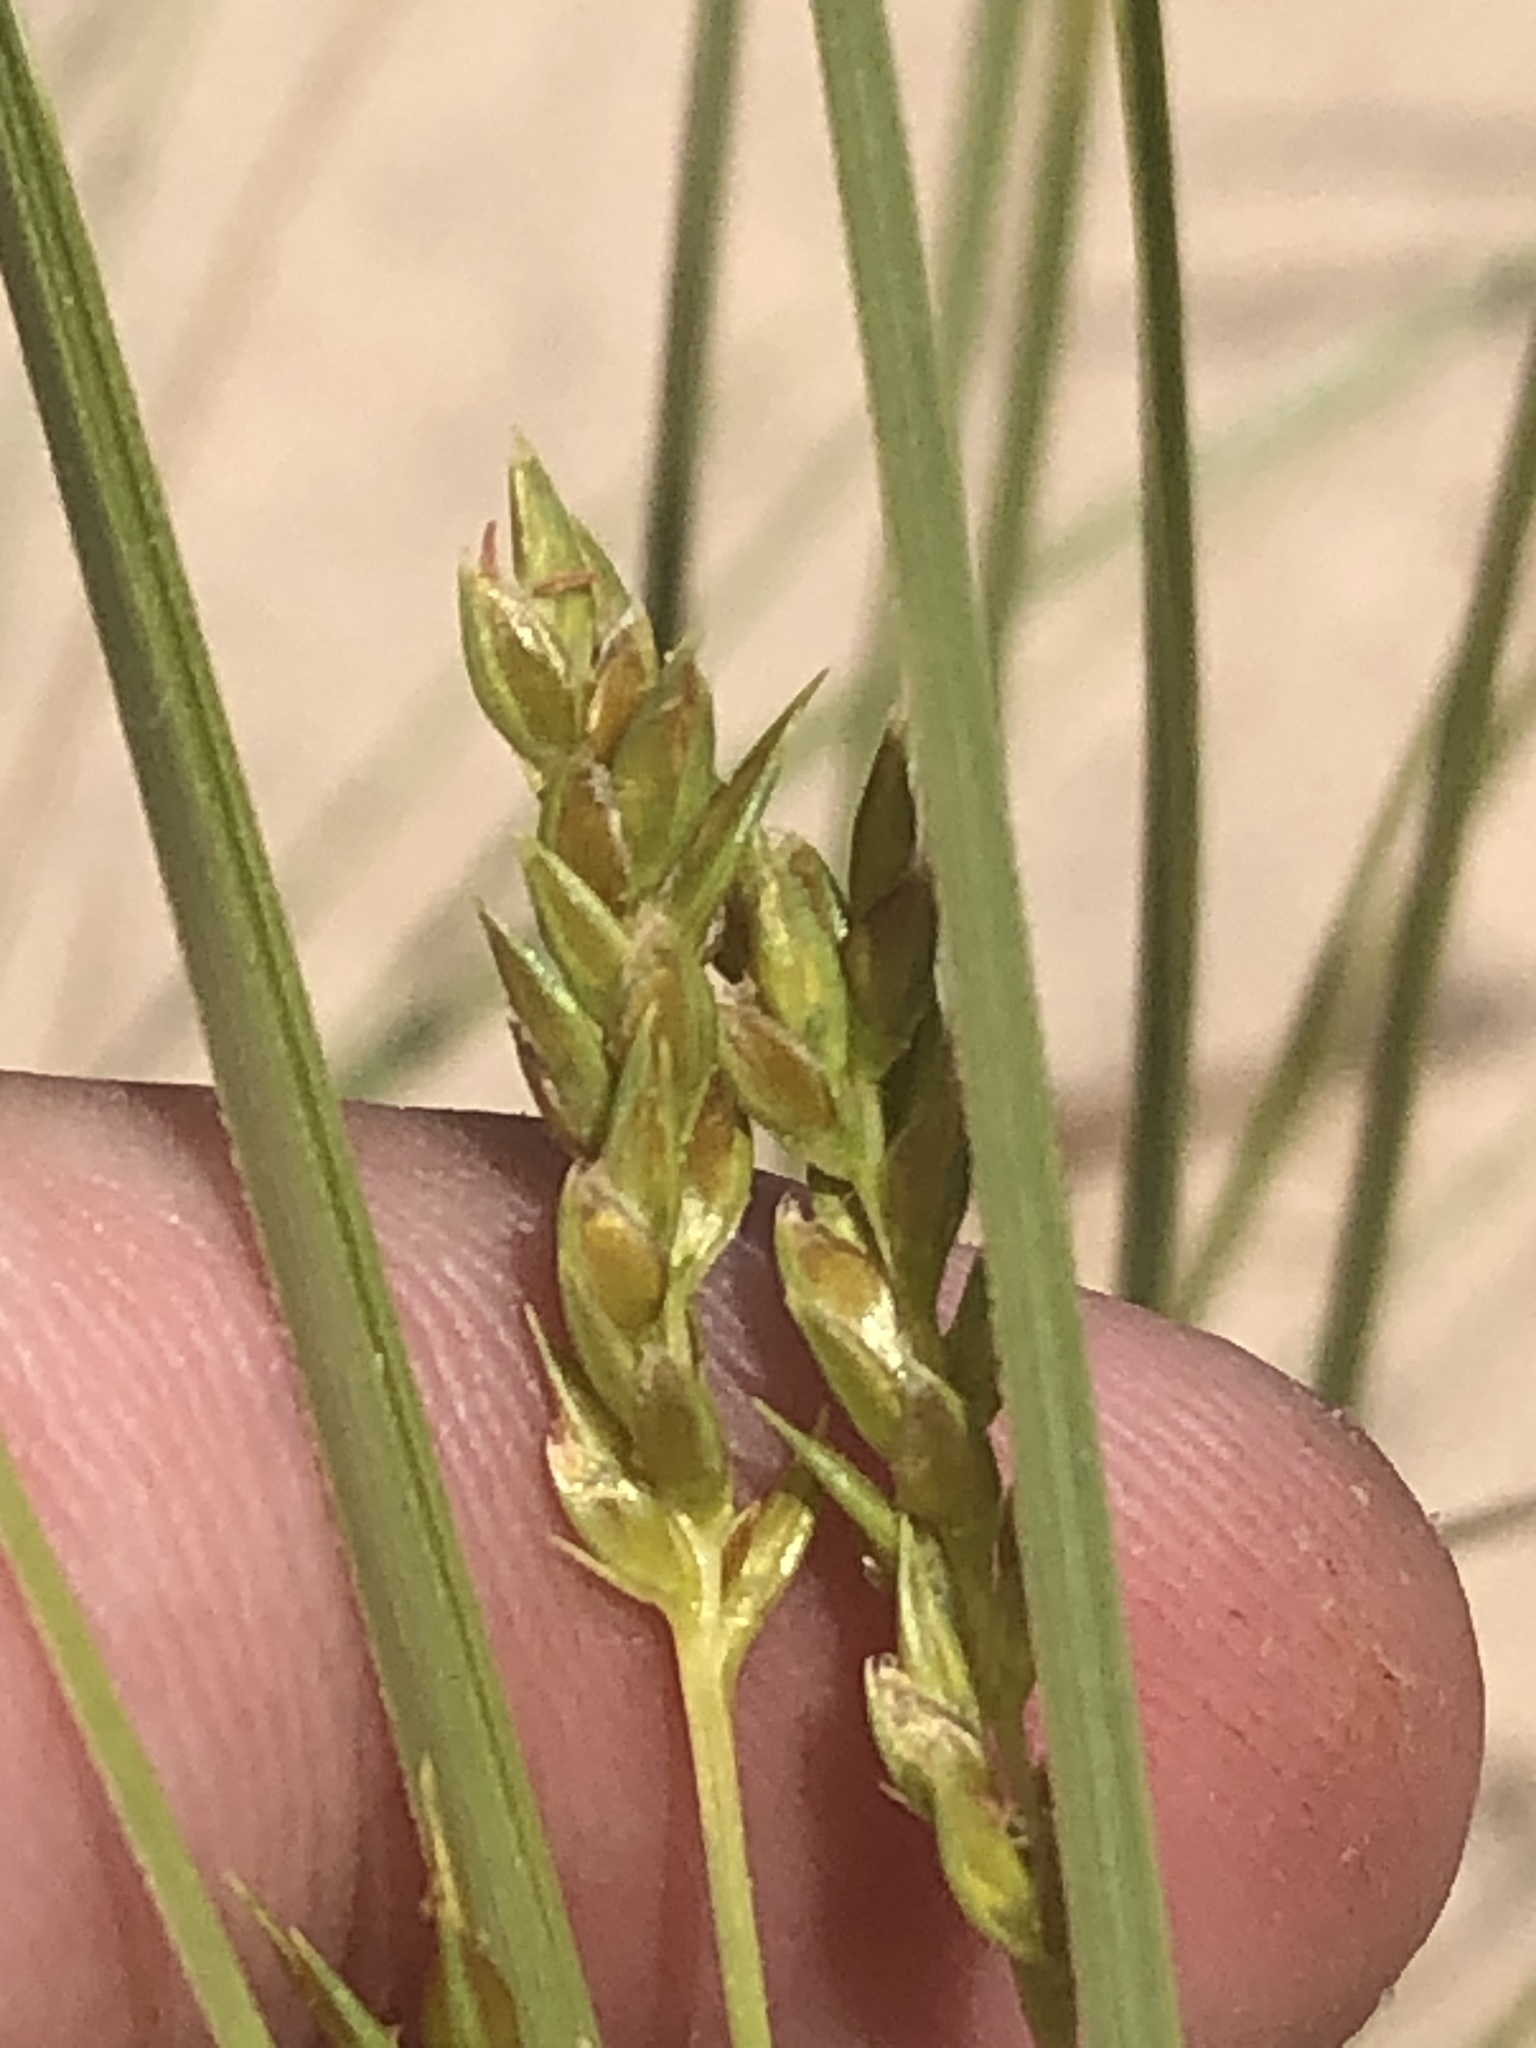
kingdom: Plantae
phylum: Tracheophyta
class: Liliopsida
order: Poales
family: Cyperaceae
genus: Cyperus
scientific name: Cyperus schweinitzii
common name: Schweinitz's cyperus
